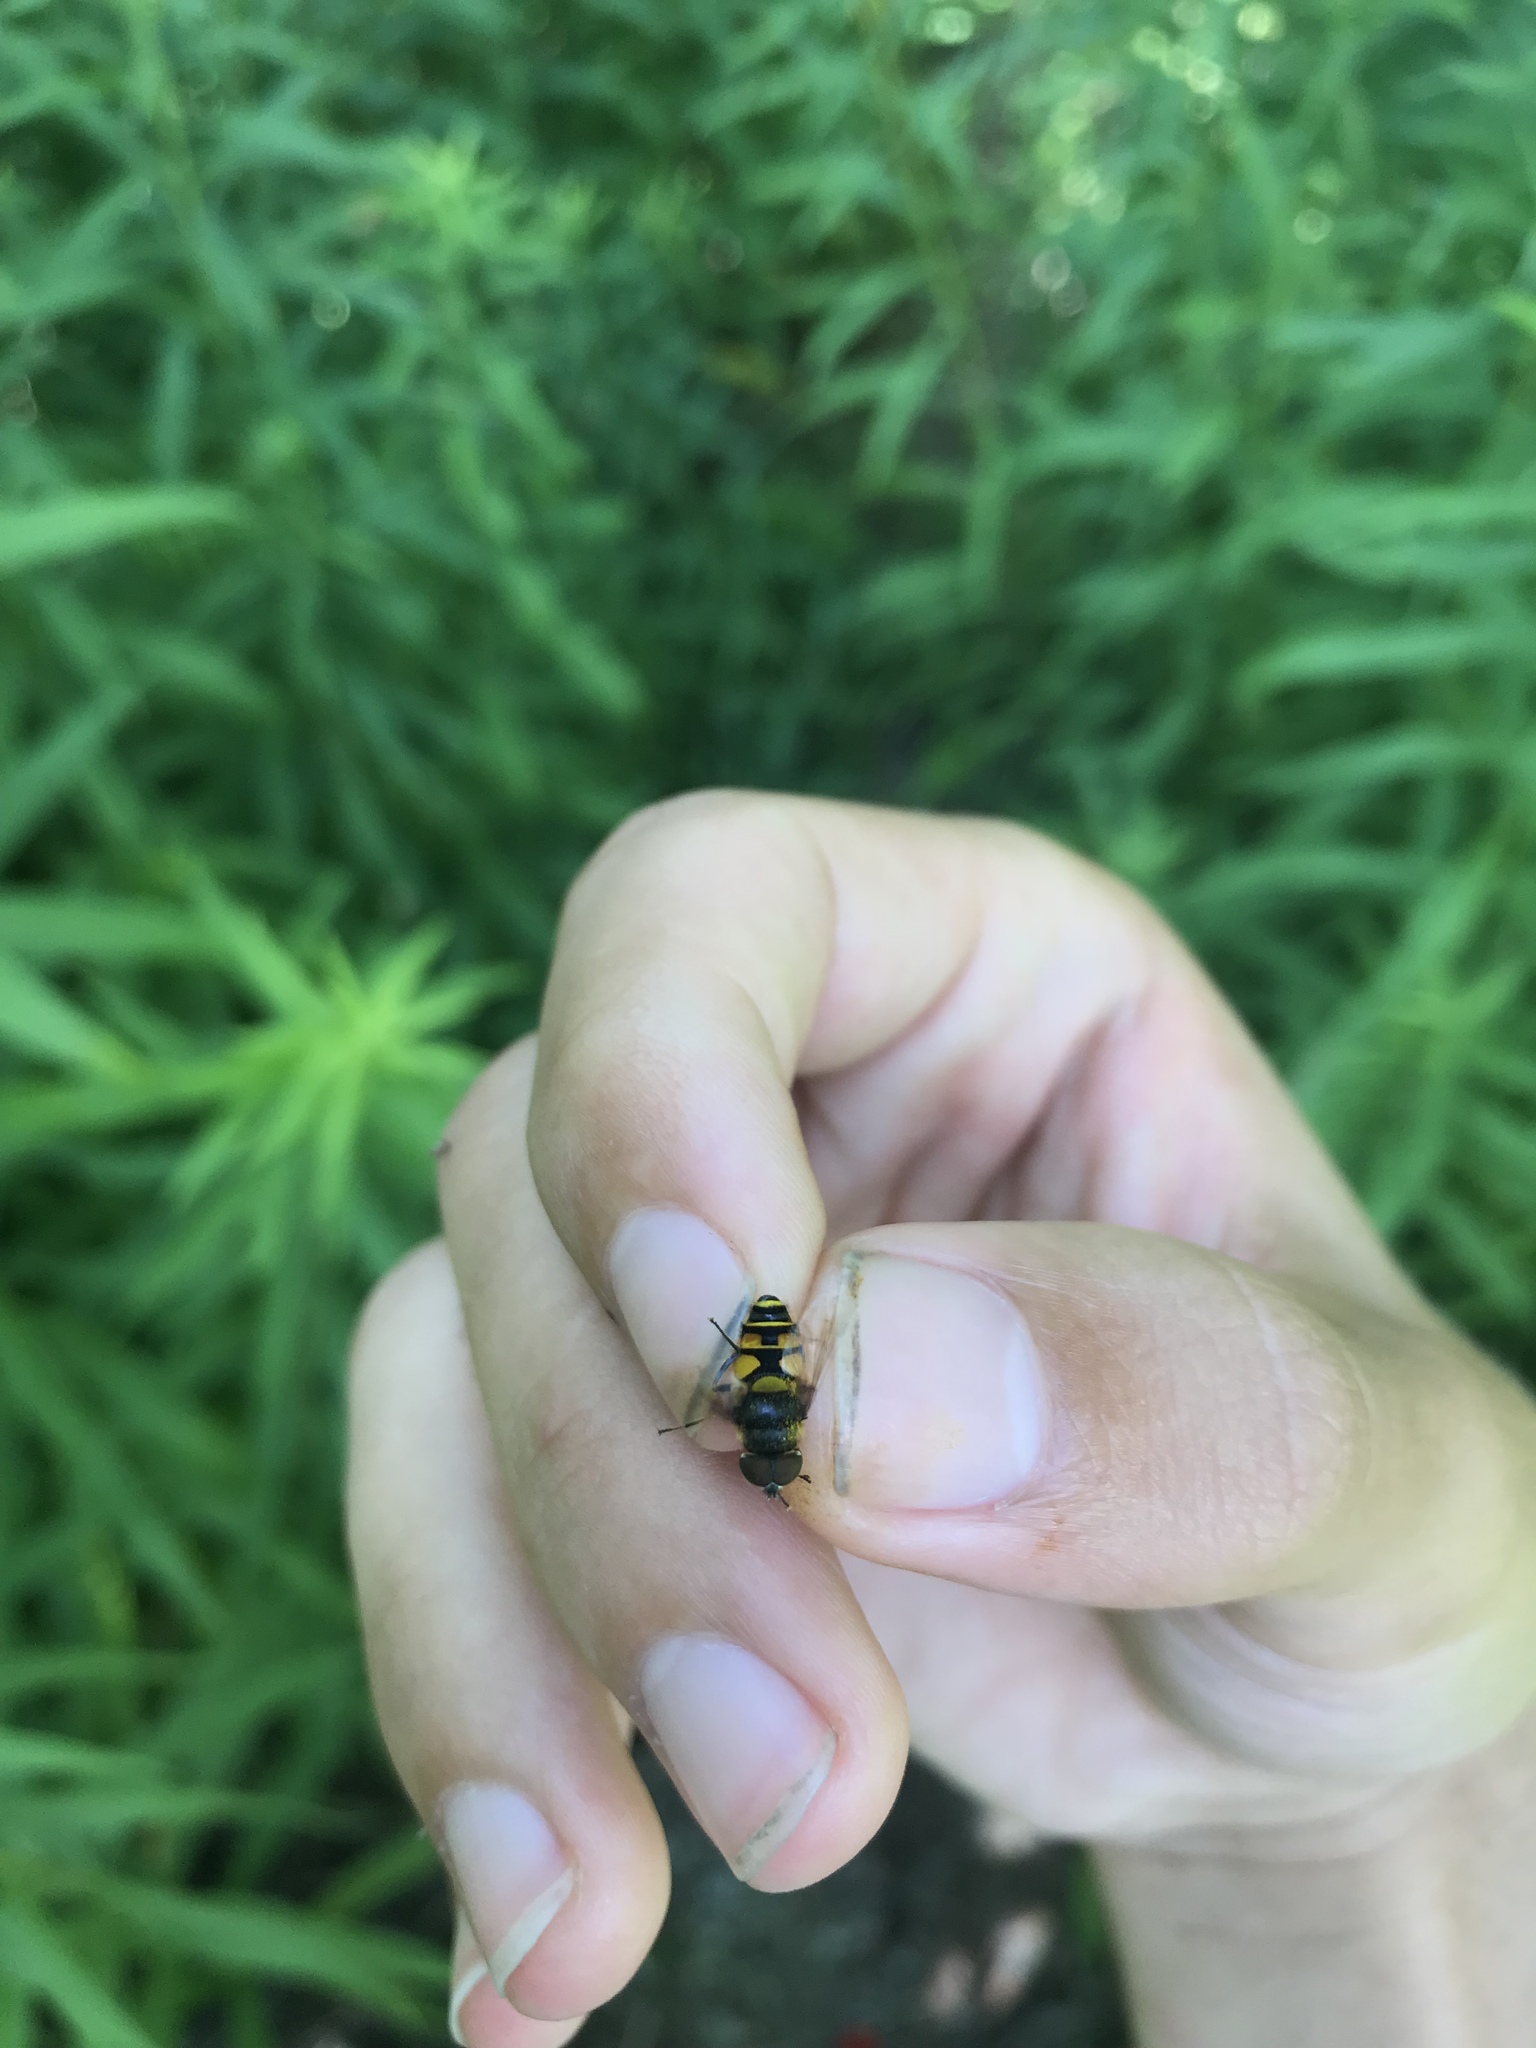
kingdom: Animalia
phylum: Arthropoda
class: Insecta
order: Diptera
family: Syrphidae
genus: Eristalis
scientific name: Eristalis transversa
